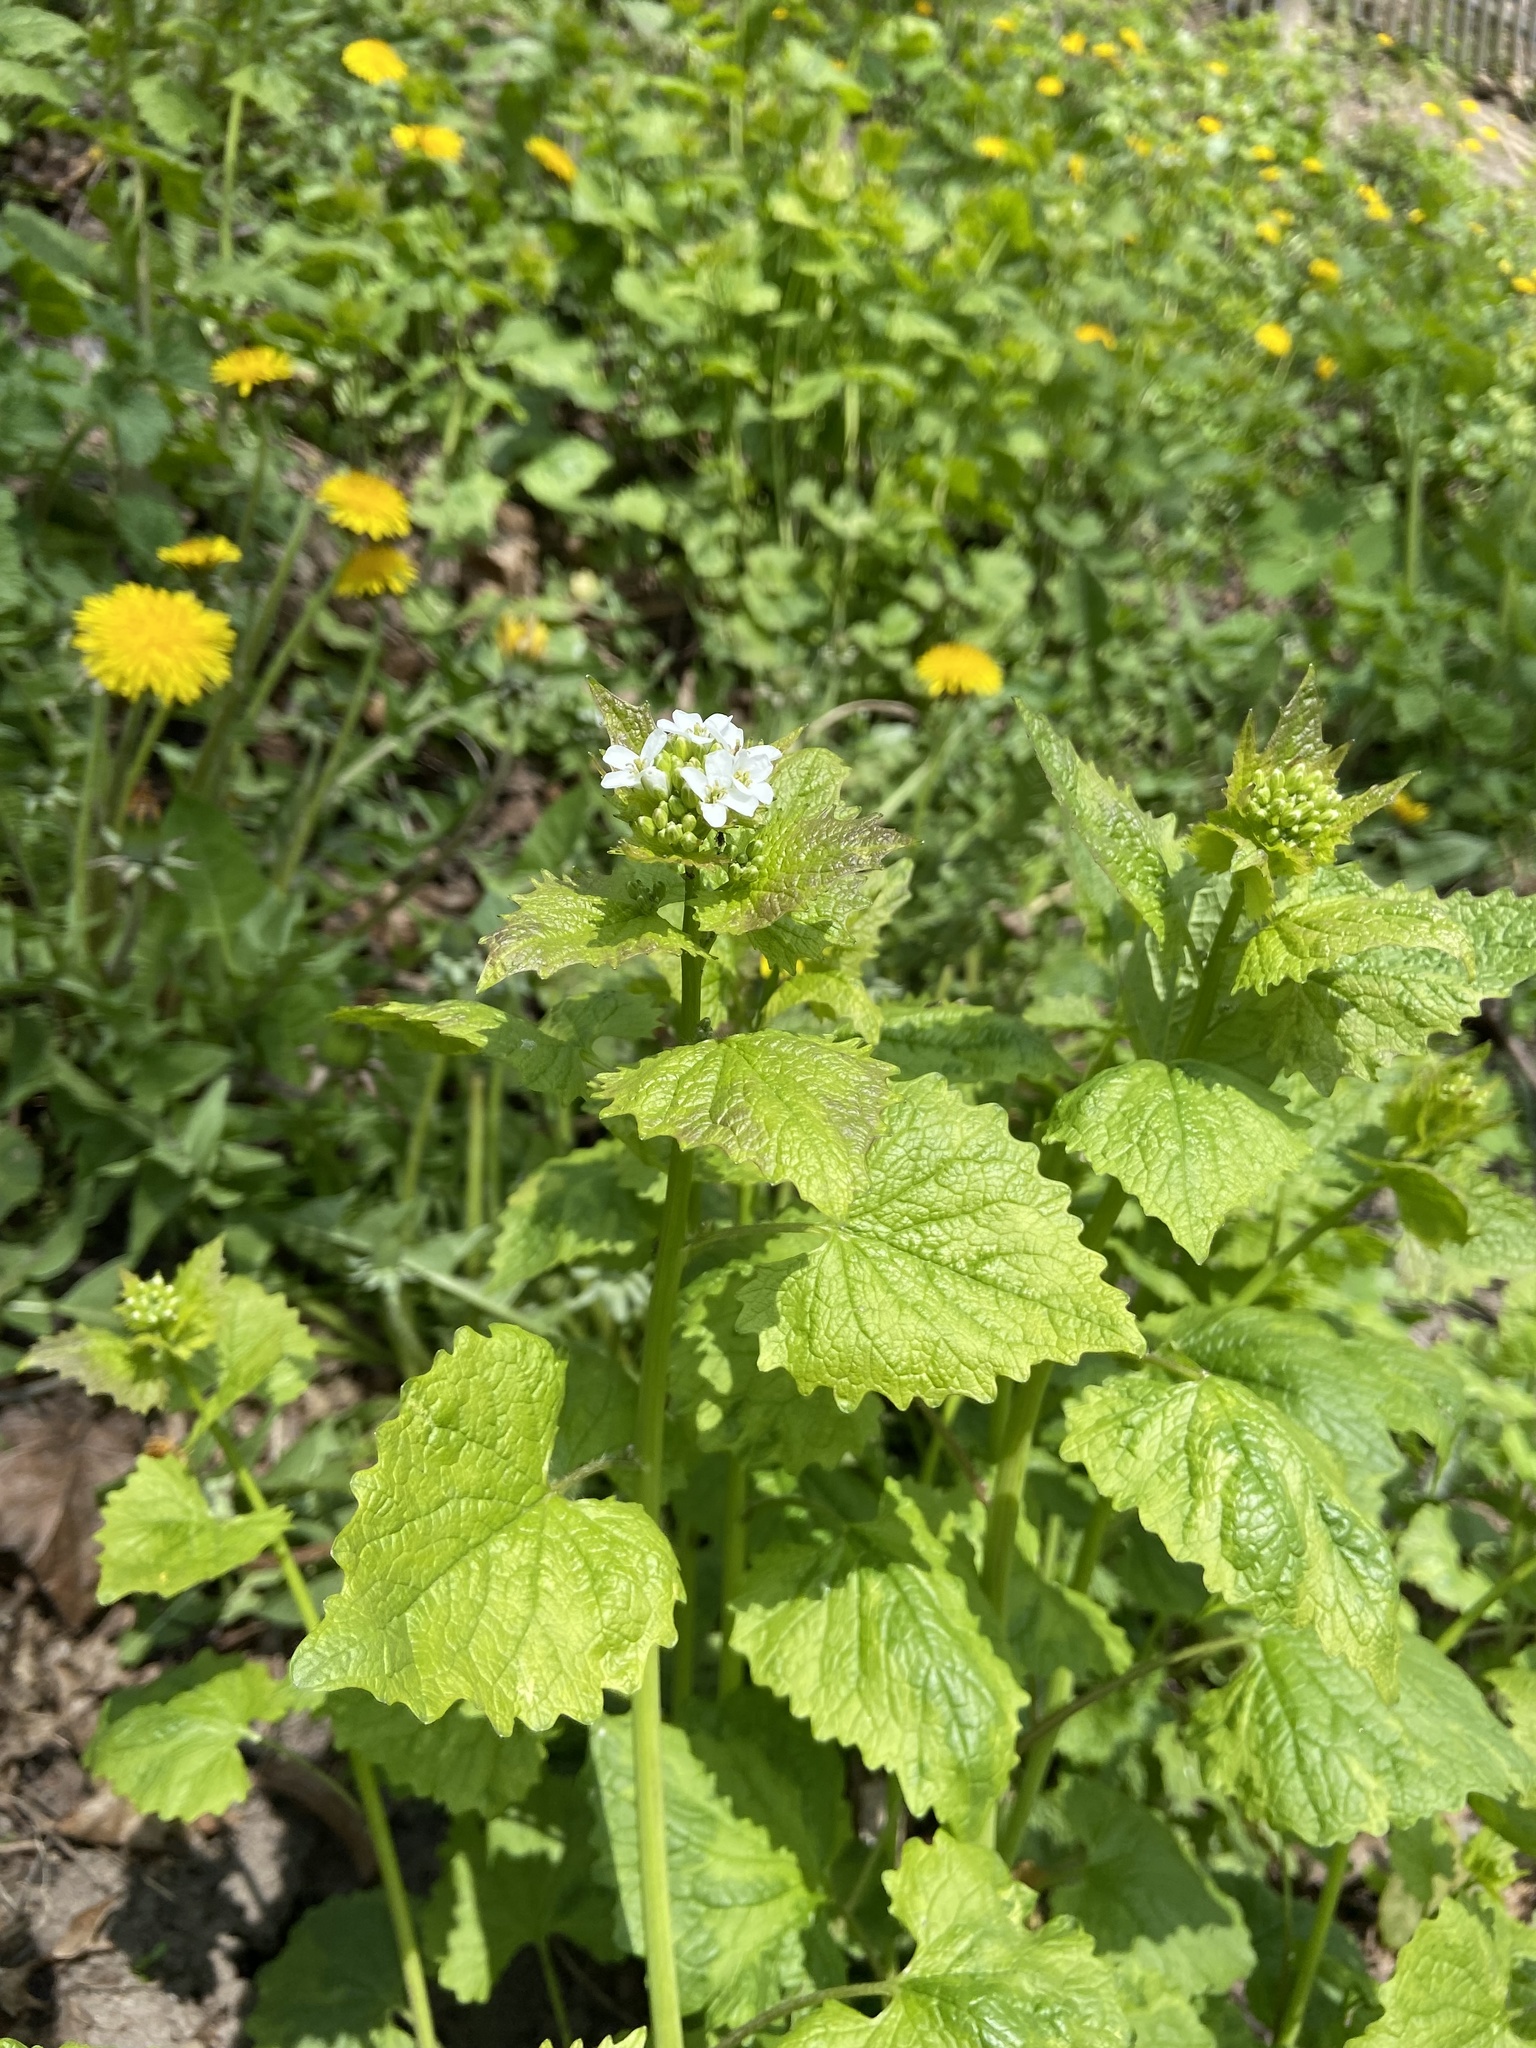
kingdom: Plantae
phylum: Tracheophyta
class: Magnoliopsida
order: Brassicales
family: Brassicaceae
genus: Alliaria
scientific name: Alliaria petiolata
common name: Garlic mustard
